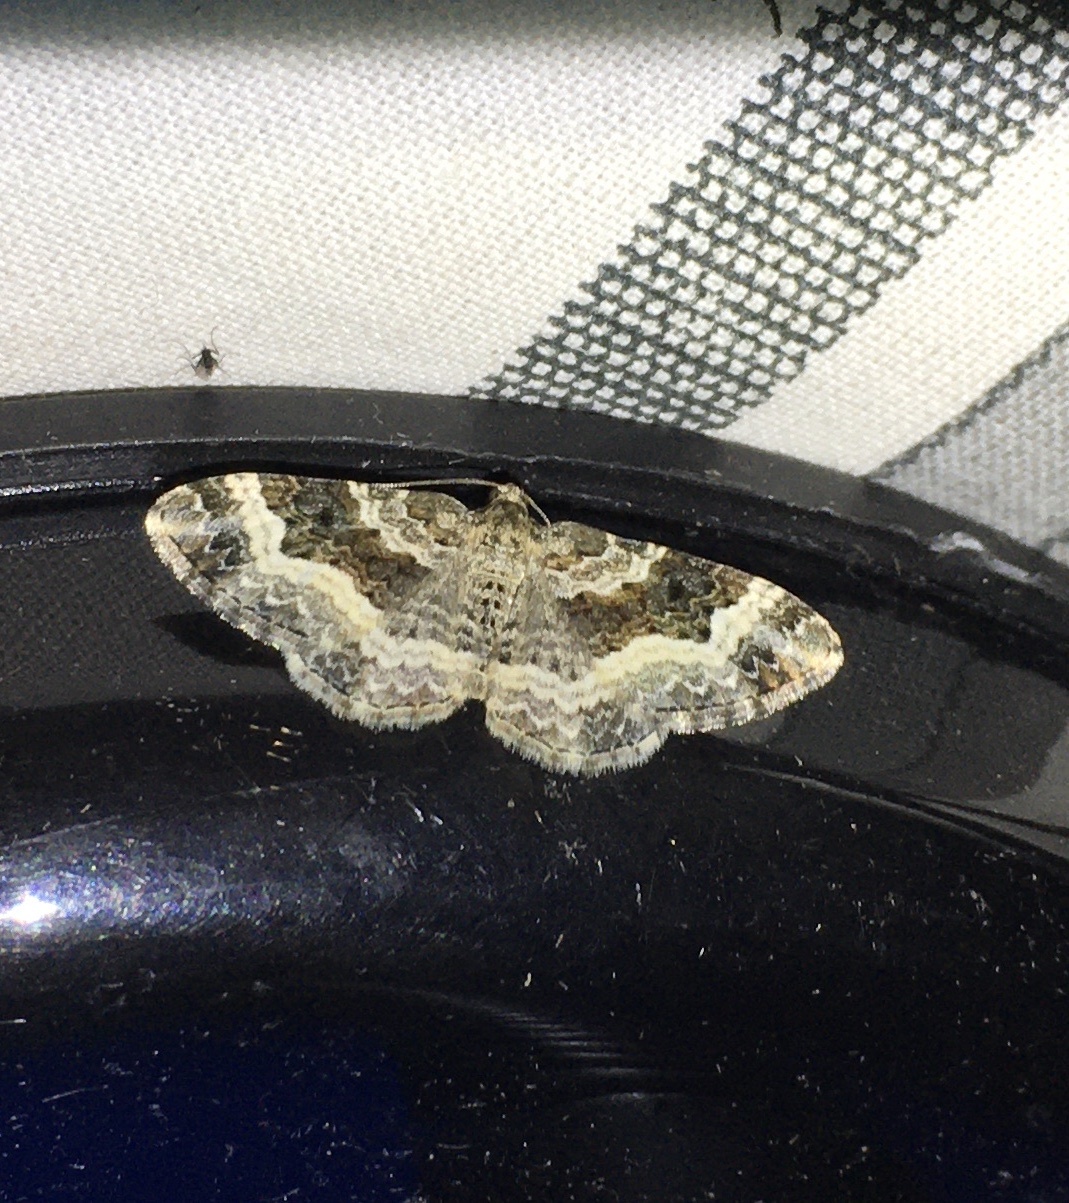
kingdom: Animalia
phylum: Arthropoda
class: Insecta
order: Lepidoptera
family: Geometridae
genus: Epirrhoe
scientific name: Epirrhoe alternata
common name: Common carpet
